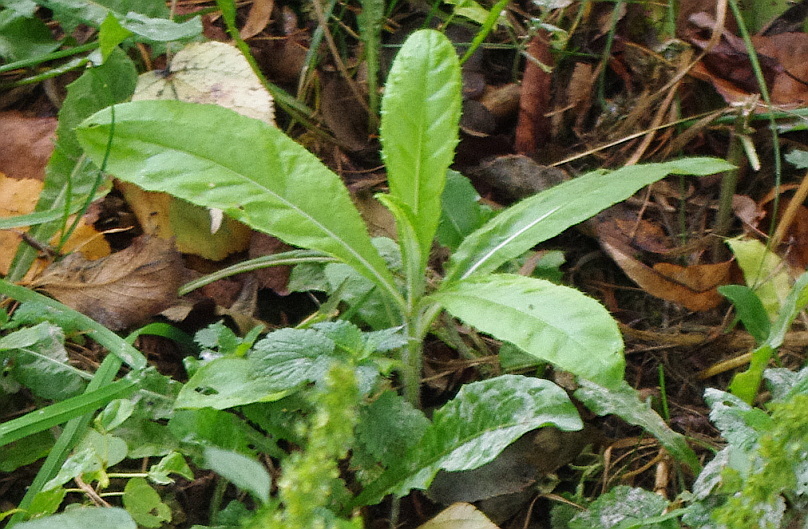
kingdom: Plantae
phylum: Tracheophyta
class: Magnoliopsida
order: Asterales
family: Asteraceae
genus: Cirsium
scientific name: Cirsium arvense
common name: Creeping thistle
